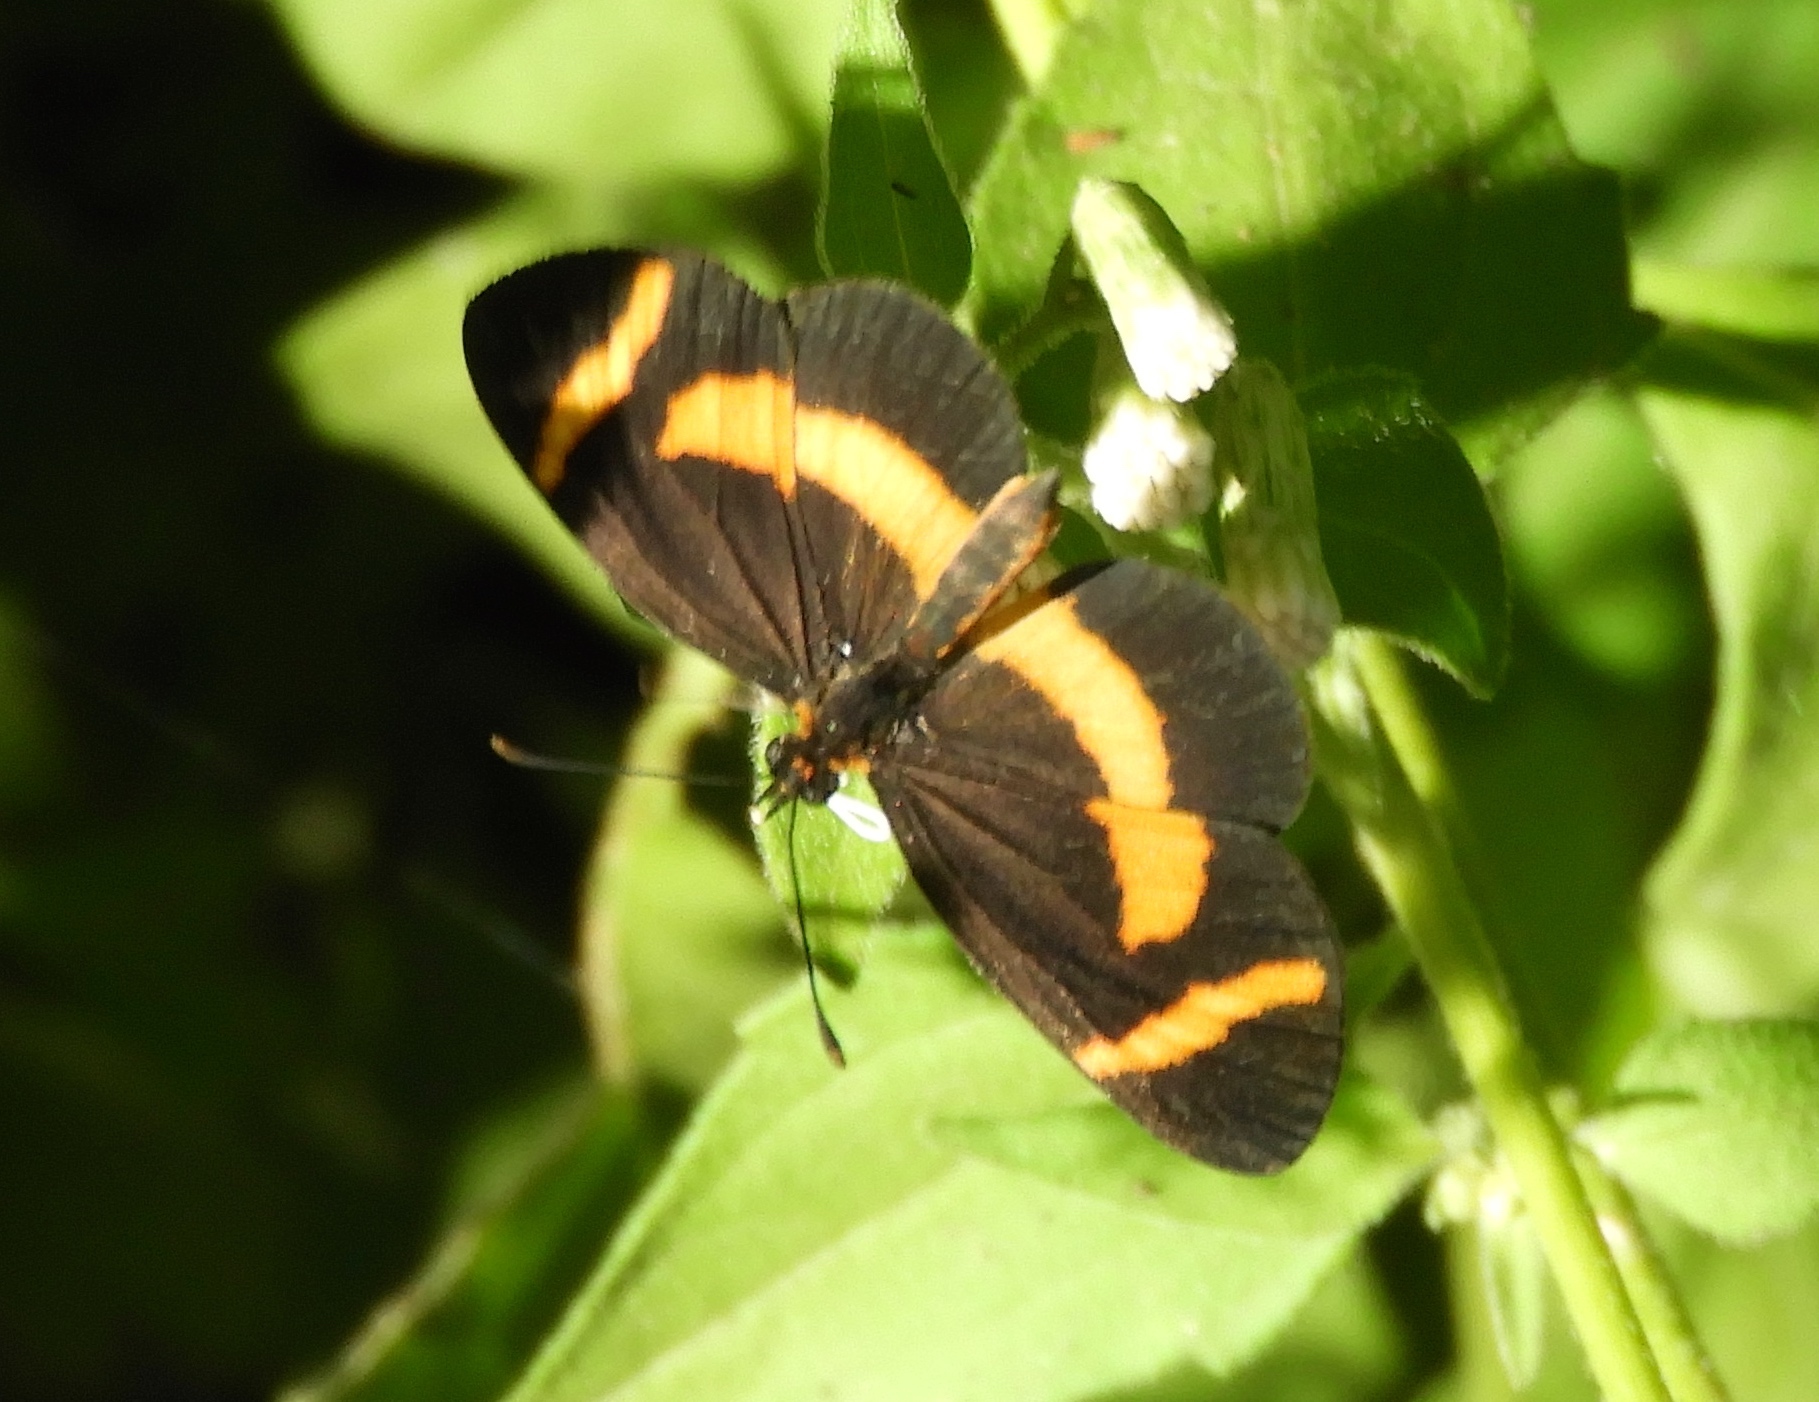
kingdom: Animalia
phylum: Arthropoda
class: Insecta
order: Lepidoptera
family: Nymphalidae
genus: Microtia
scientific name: Microtia elva
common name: Elf
